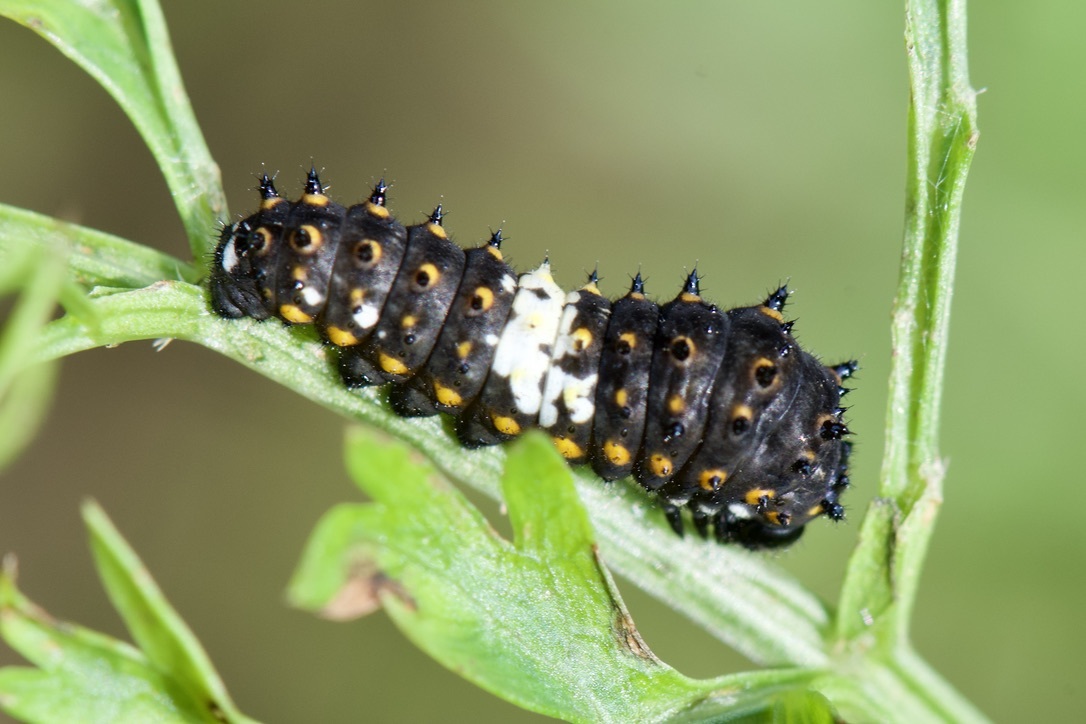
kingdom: Animalia
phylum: Arthropoda
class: Insecta
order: Lepidoptera
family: Papilionidae
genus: Papilio
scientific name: Papilio polyxenes
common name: Black swallowtail
